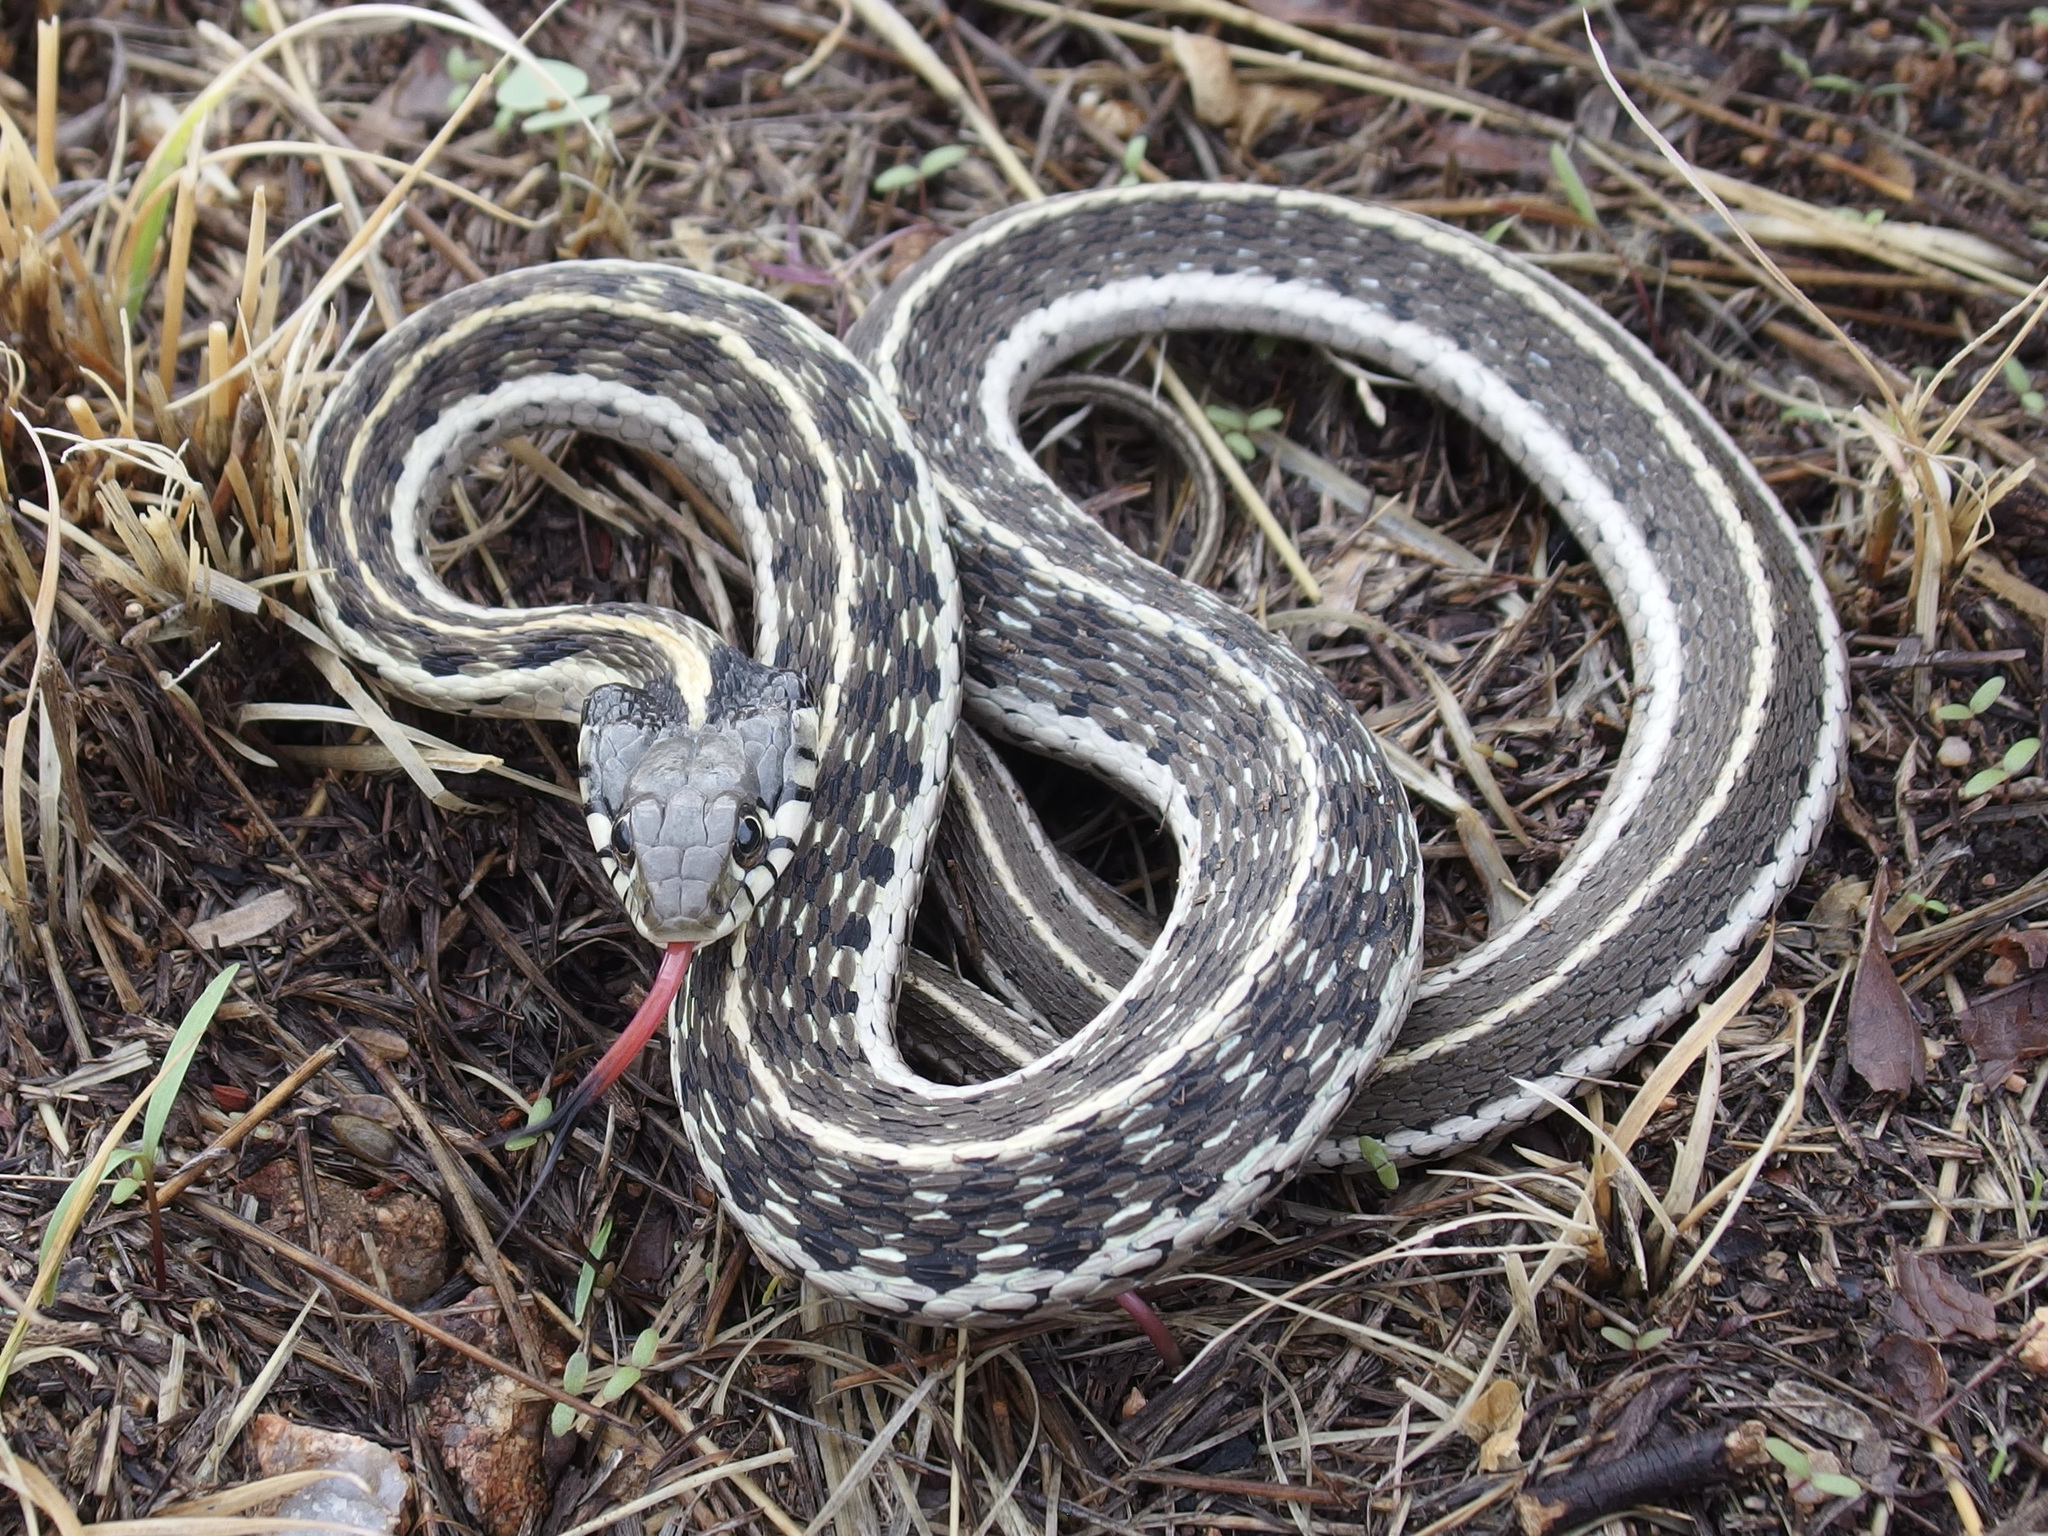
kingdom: Animalia
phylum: Chordata
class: Squamata
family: Colubridae
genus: Thamnophis
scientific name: Thamnophis cyrtopsis
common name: Black-necked gartersnake
